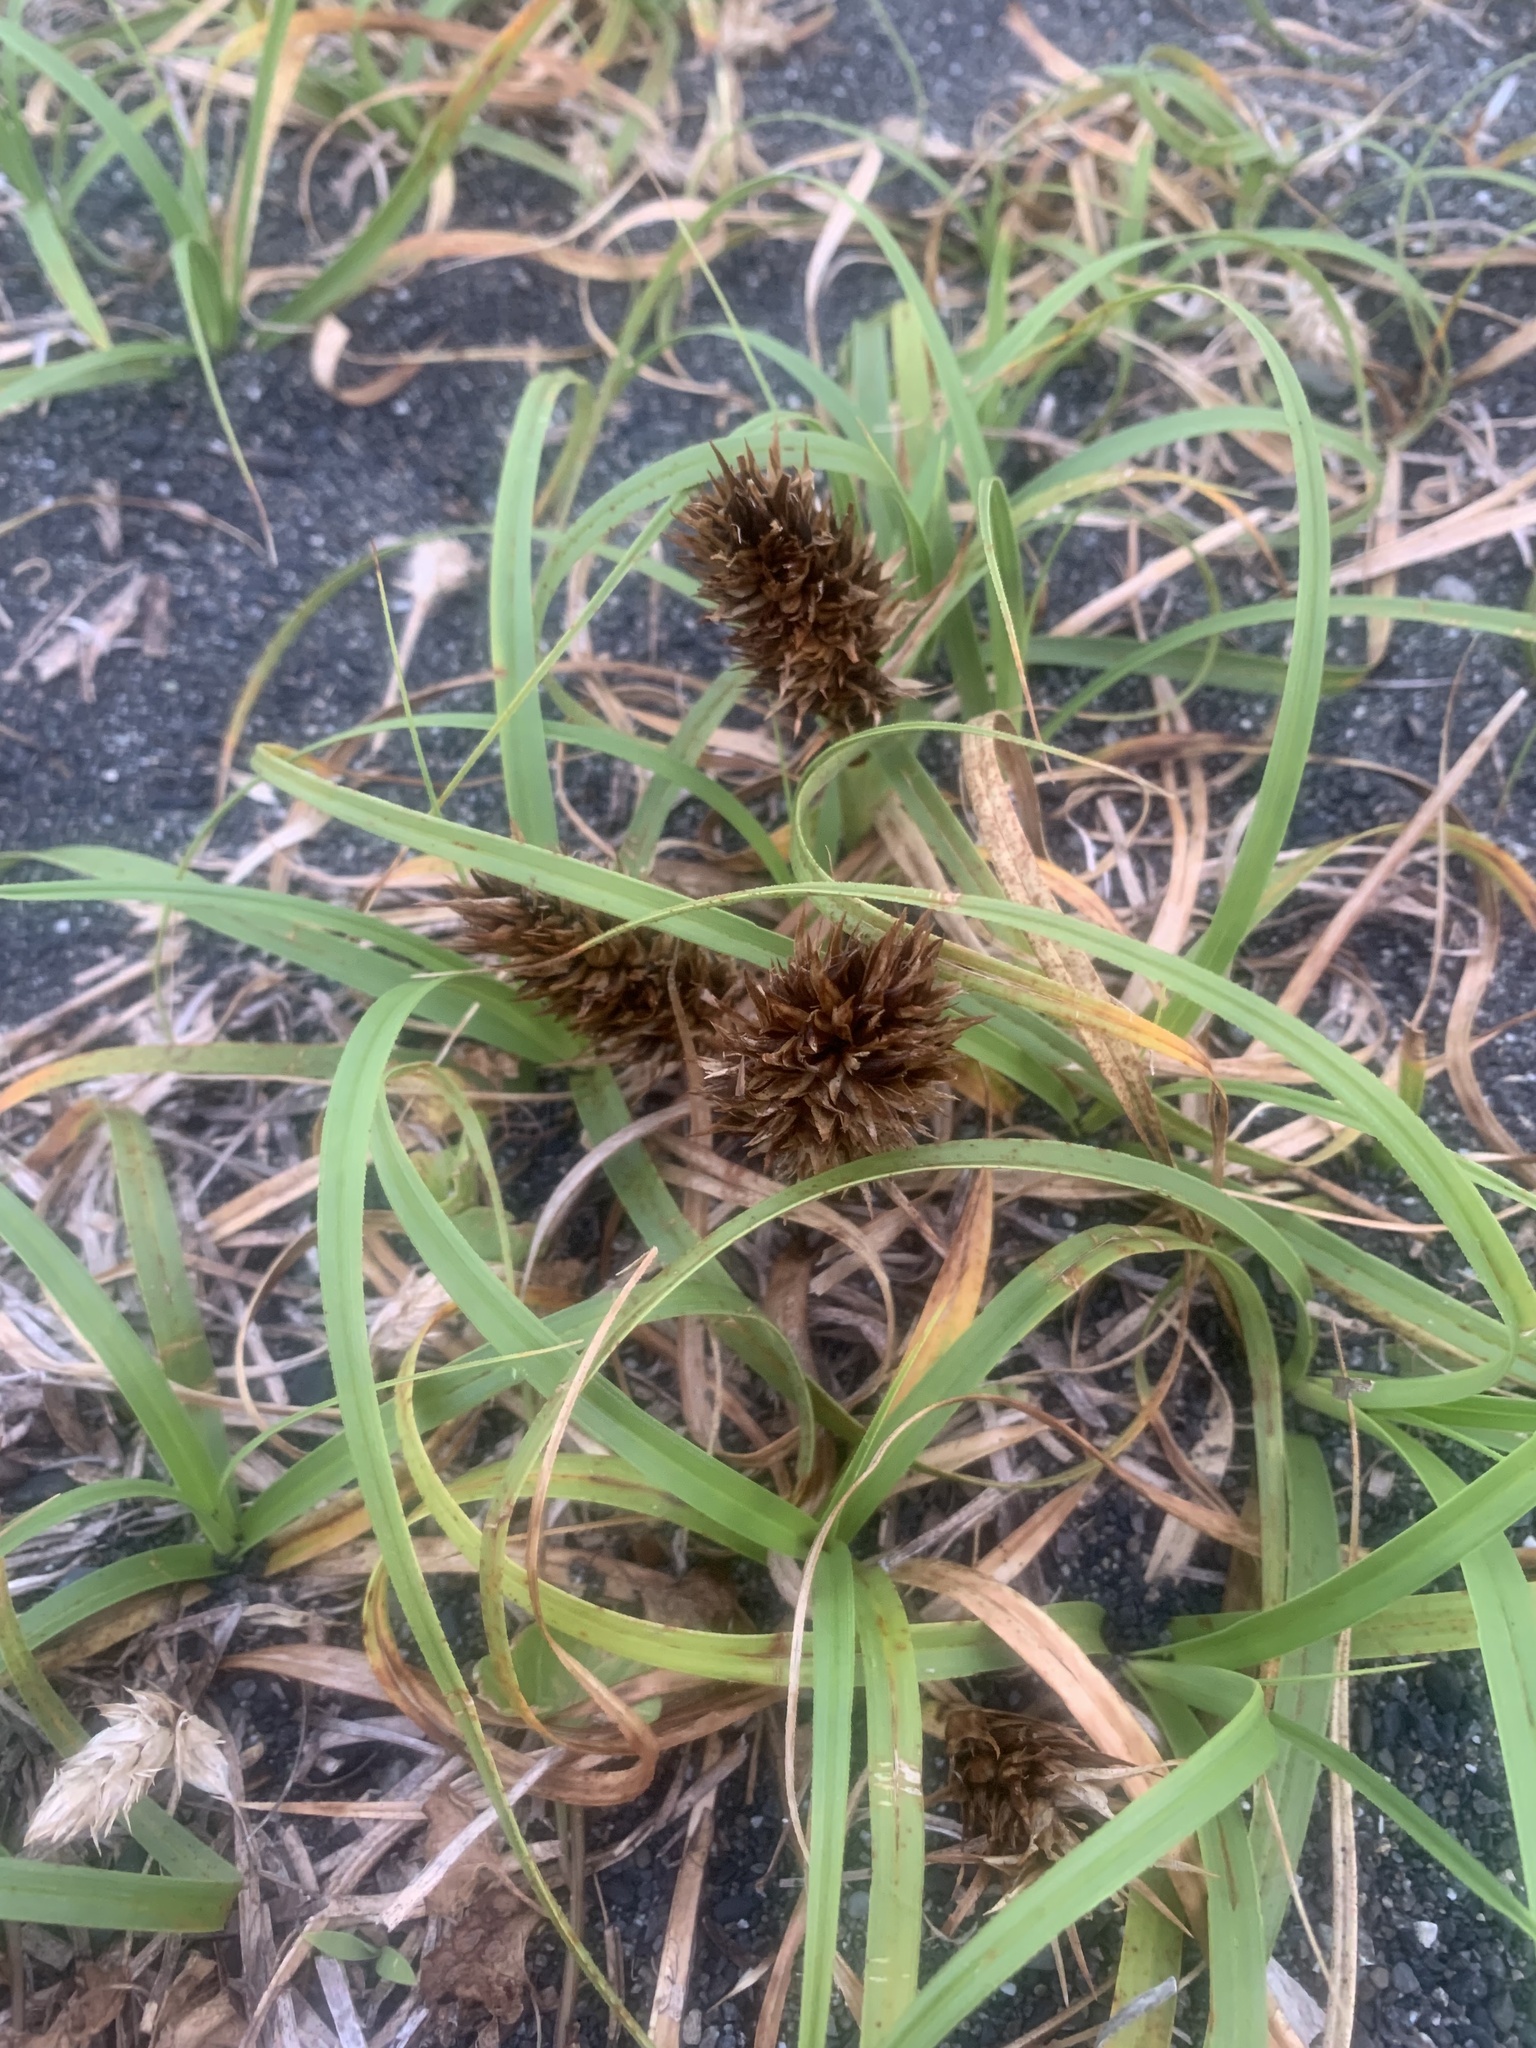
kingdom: Plantae
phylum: Tracheophyta
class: Liliopsida
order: Poales
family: Cyperaceae
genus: Carex
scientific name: Carex kobomugi
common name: Japanese sedge
